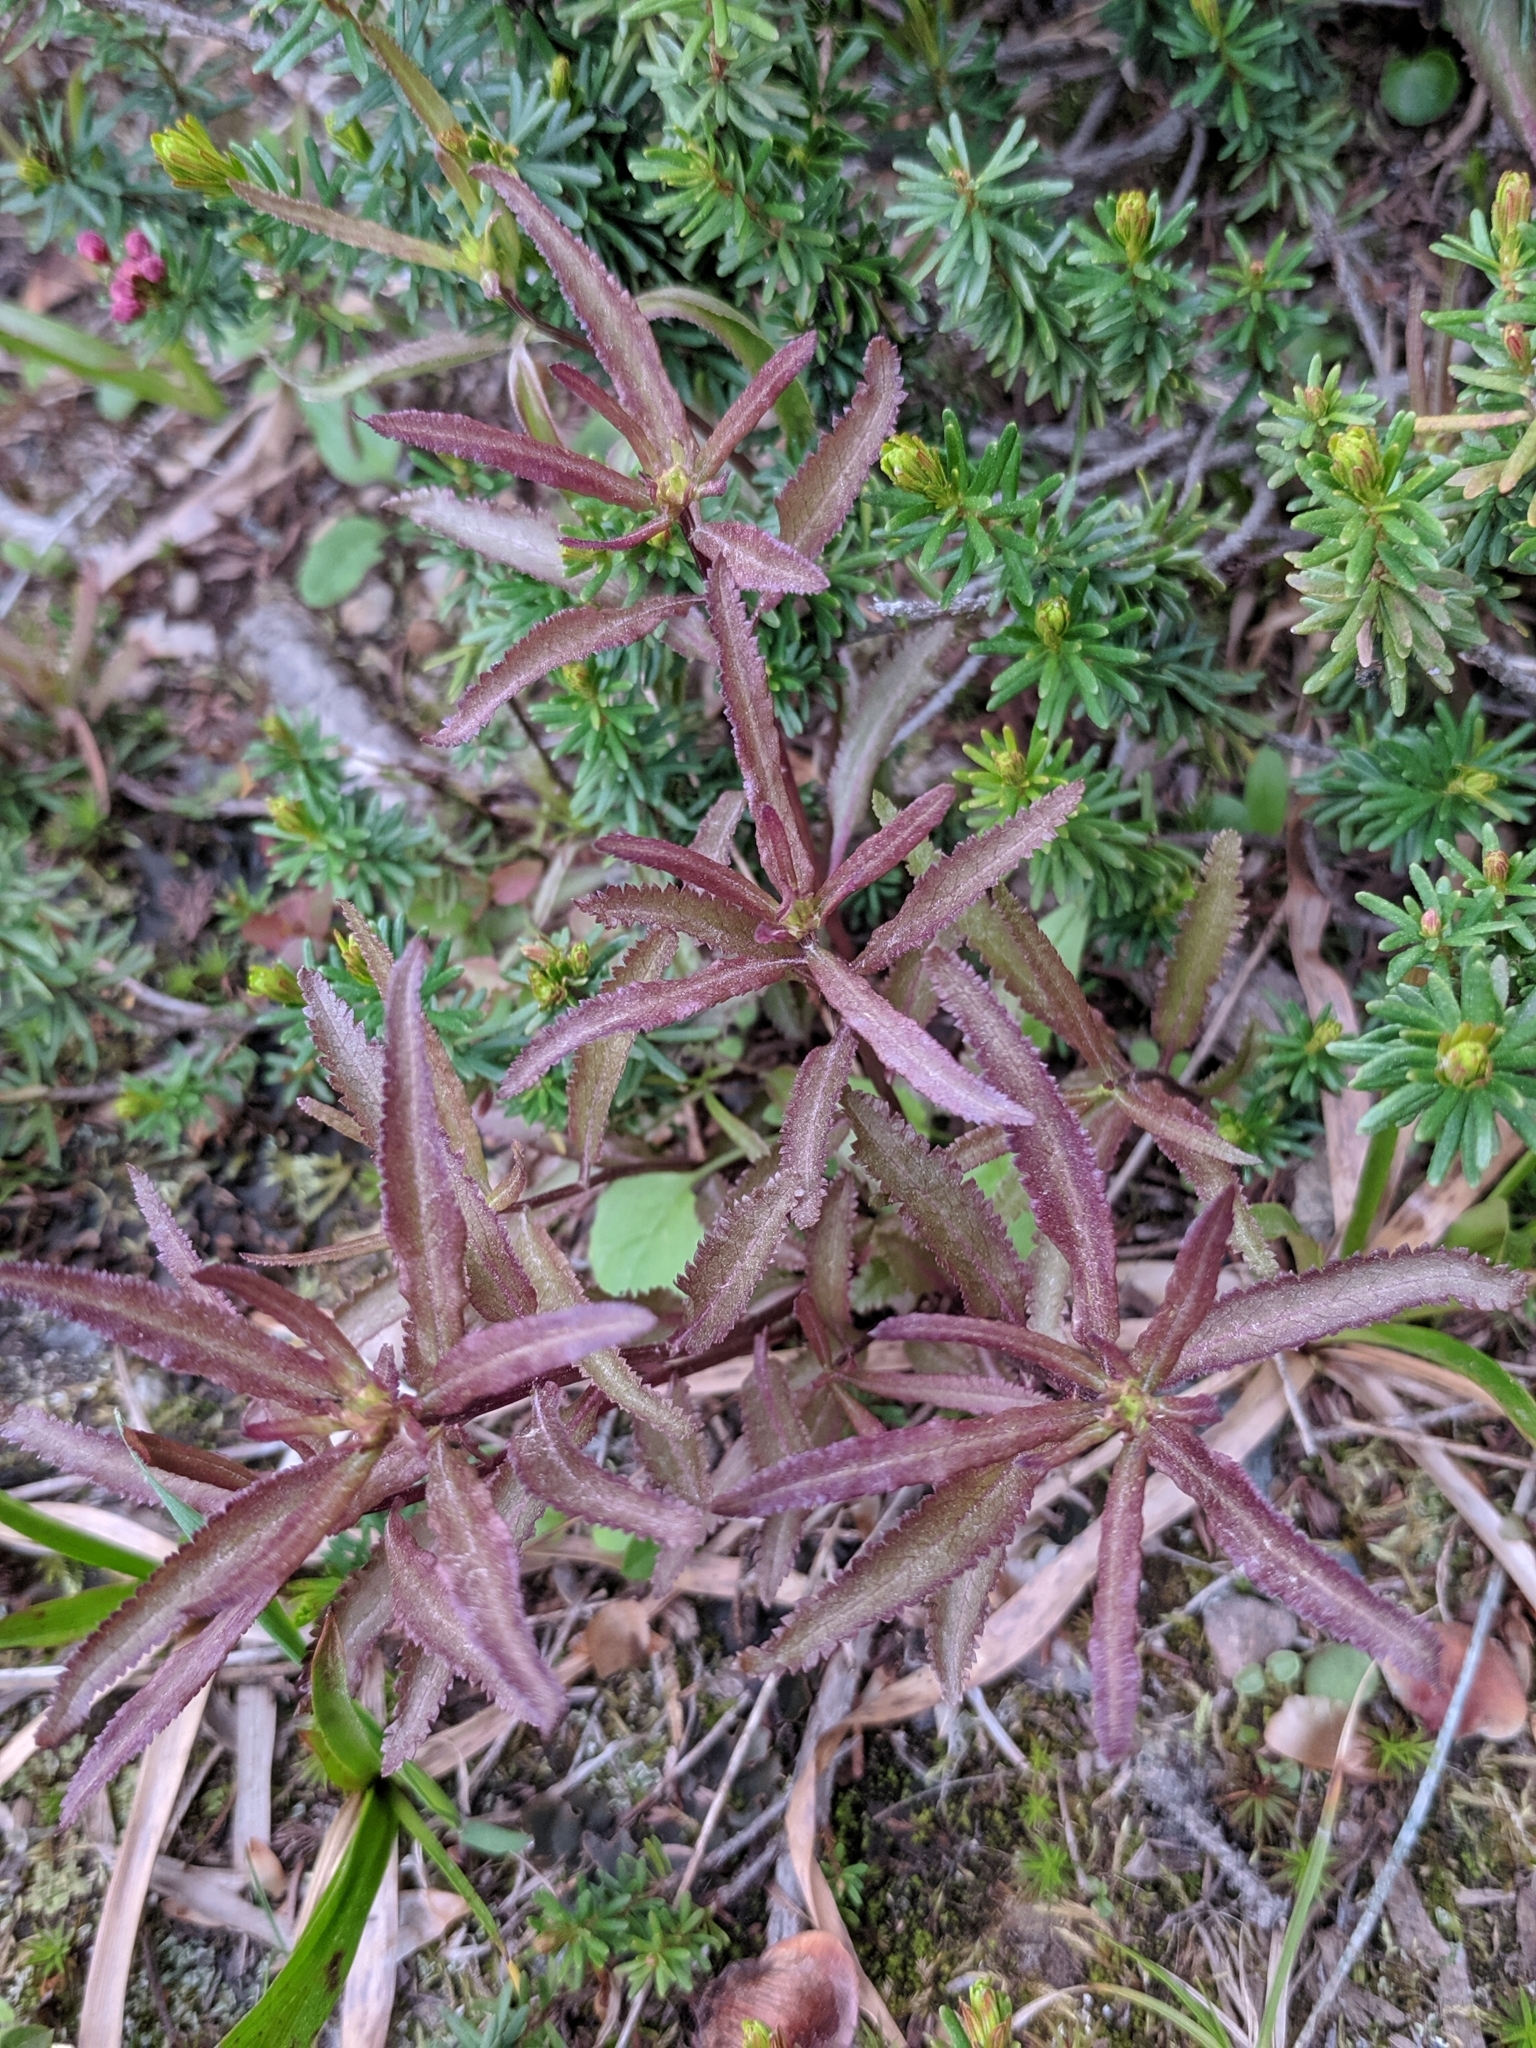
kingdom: Plantae
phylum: Tracheophyta
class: Magnoliopsida
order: Lamiales
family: Orobanchaceae
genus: Pedicularis
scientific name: Pedicularis racemosa
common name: Leafy lousewort
